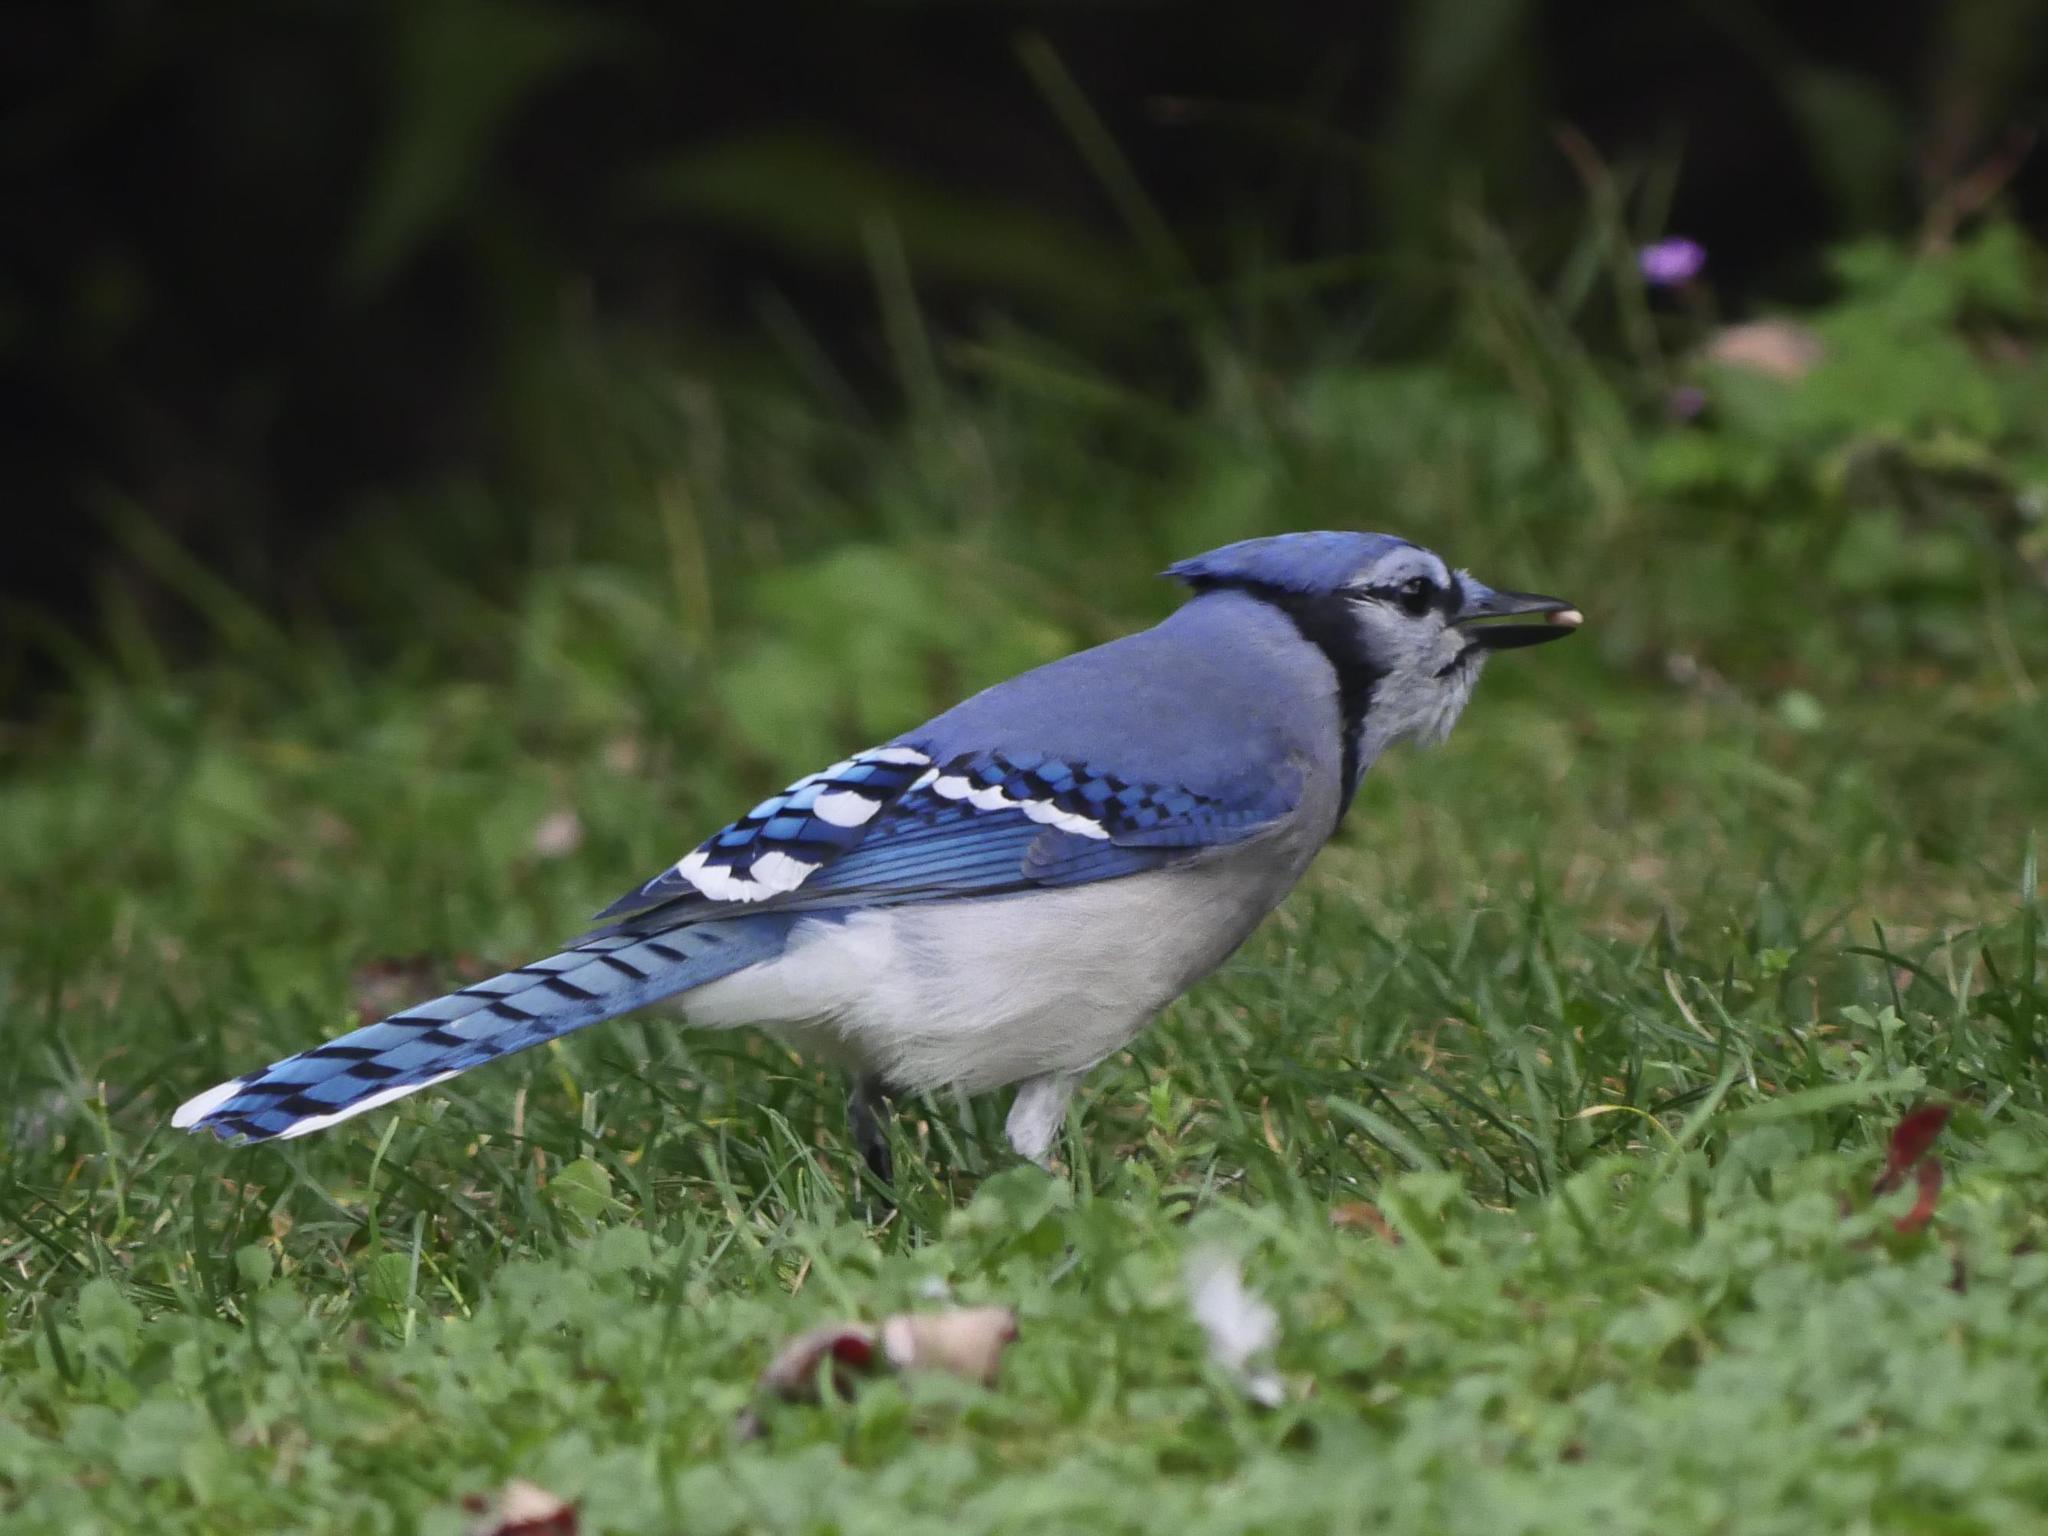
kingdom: Animalia
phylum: Chordata
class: Aves
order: Passeriformes
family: Corvidae
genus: Cyanocitta
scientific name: Cyanocitta cristata
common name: Blue jay
